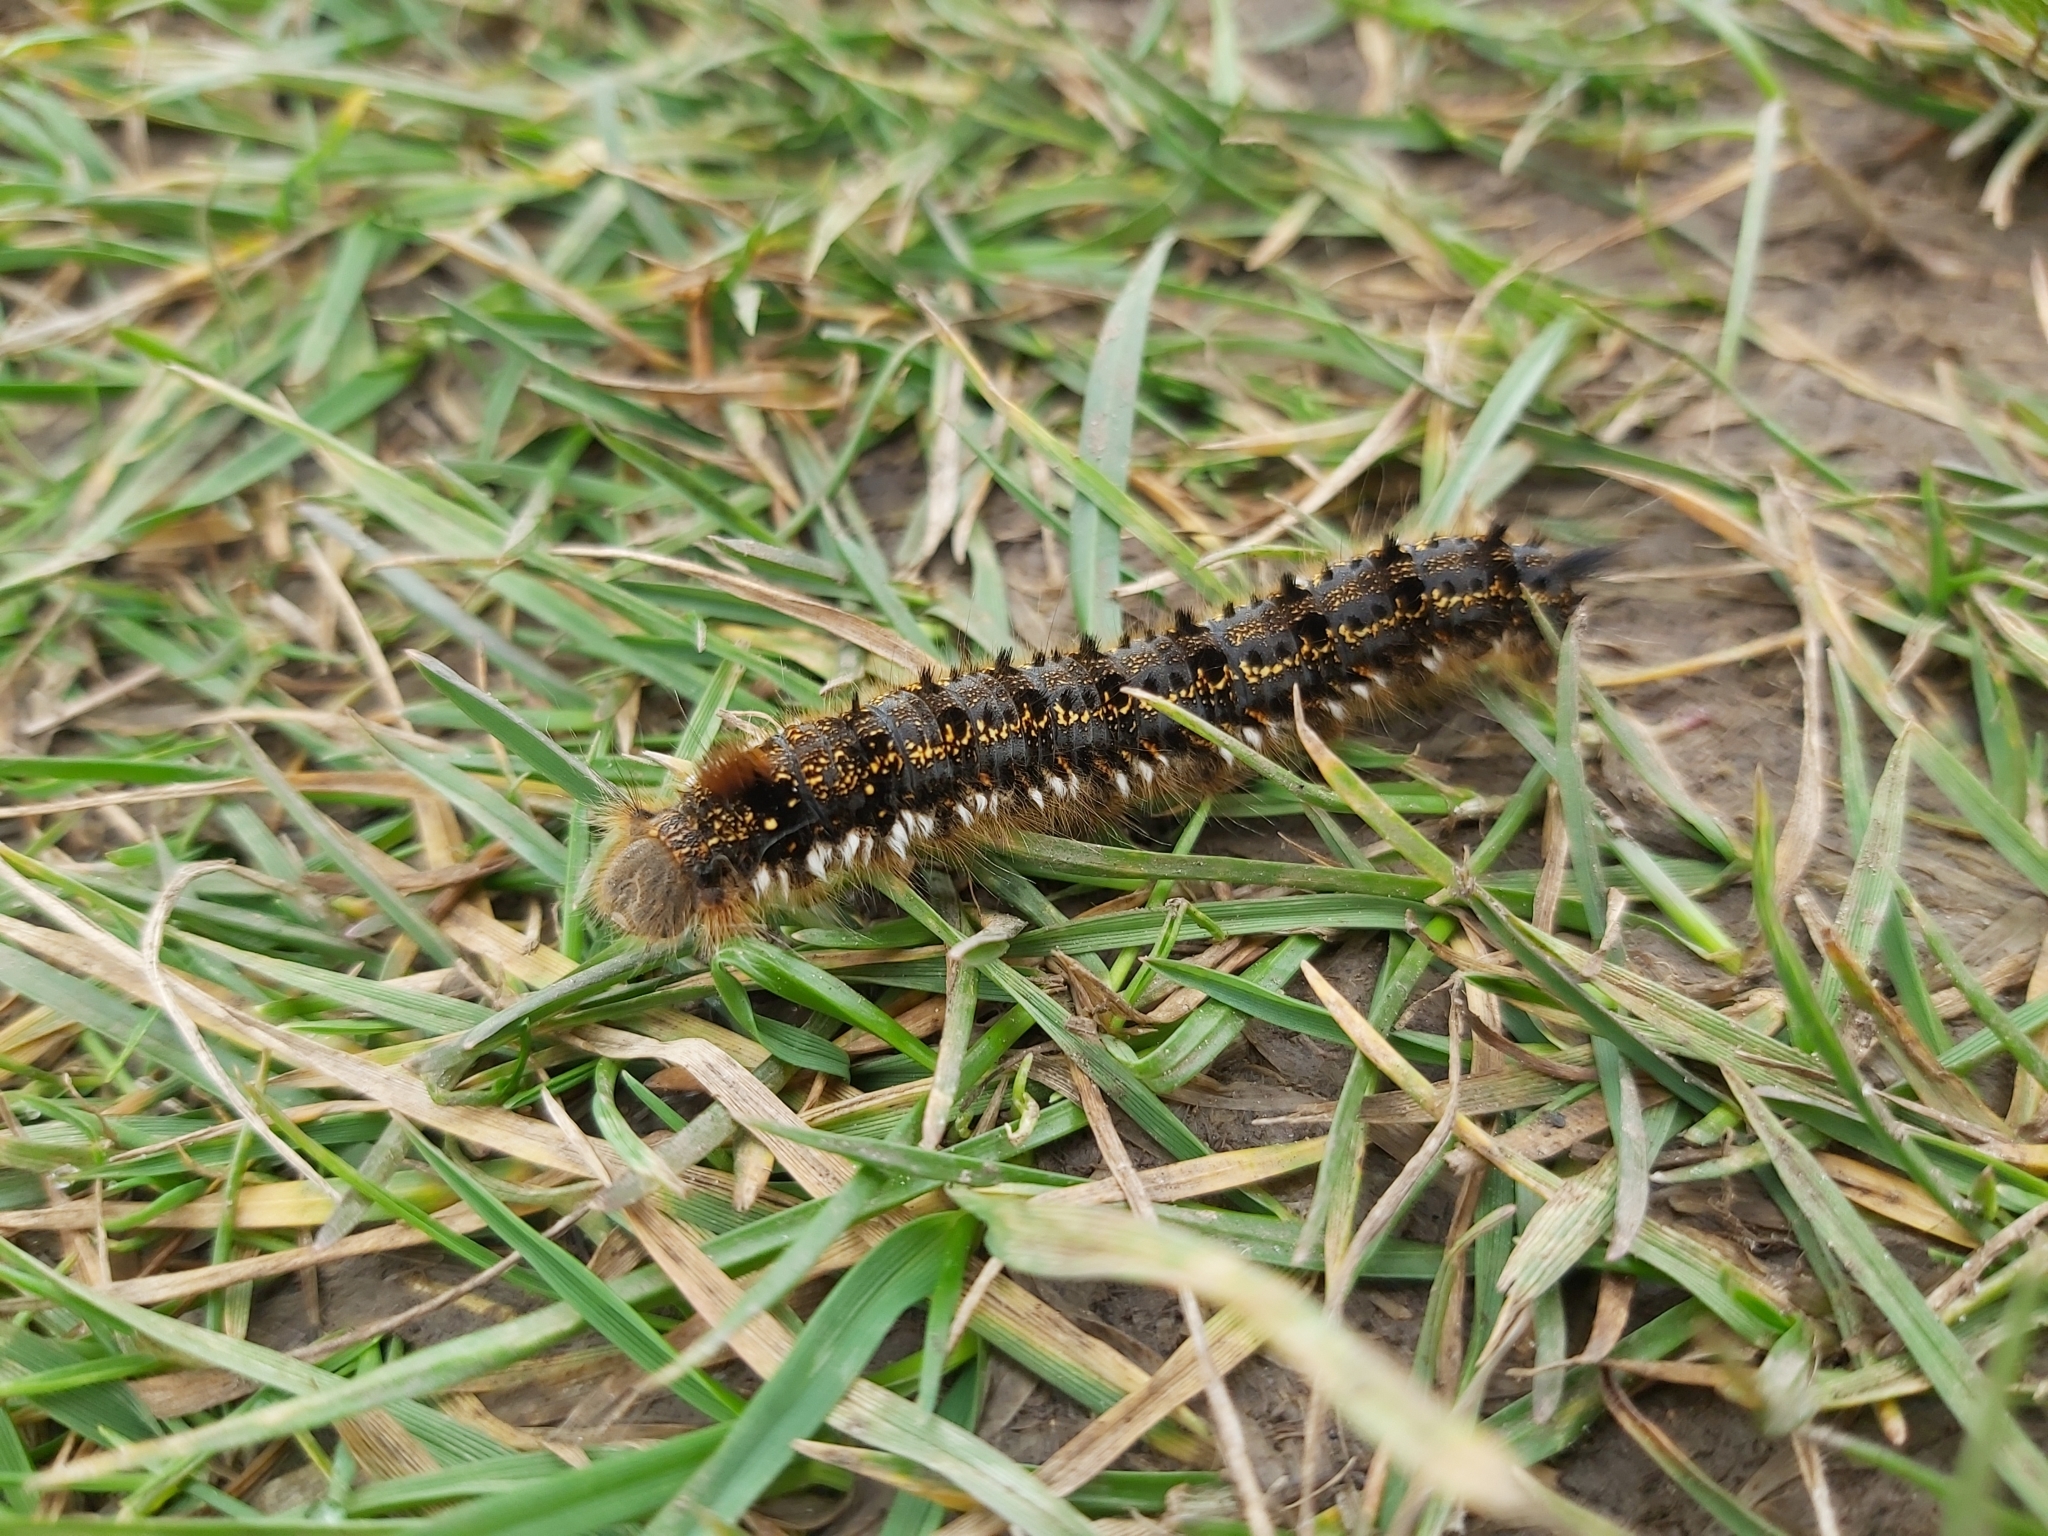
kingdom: Animalia
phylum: Arthropoda
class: Insecta
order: Lepidoptera
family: Lasiocampidae
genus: Euthrix
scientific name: Euthrix potatoria
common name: Drinker
